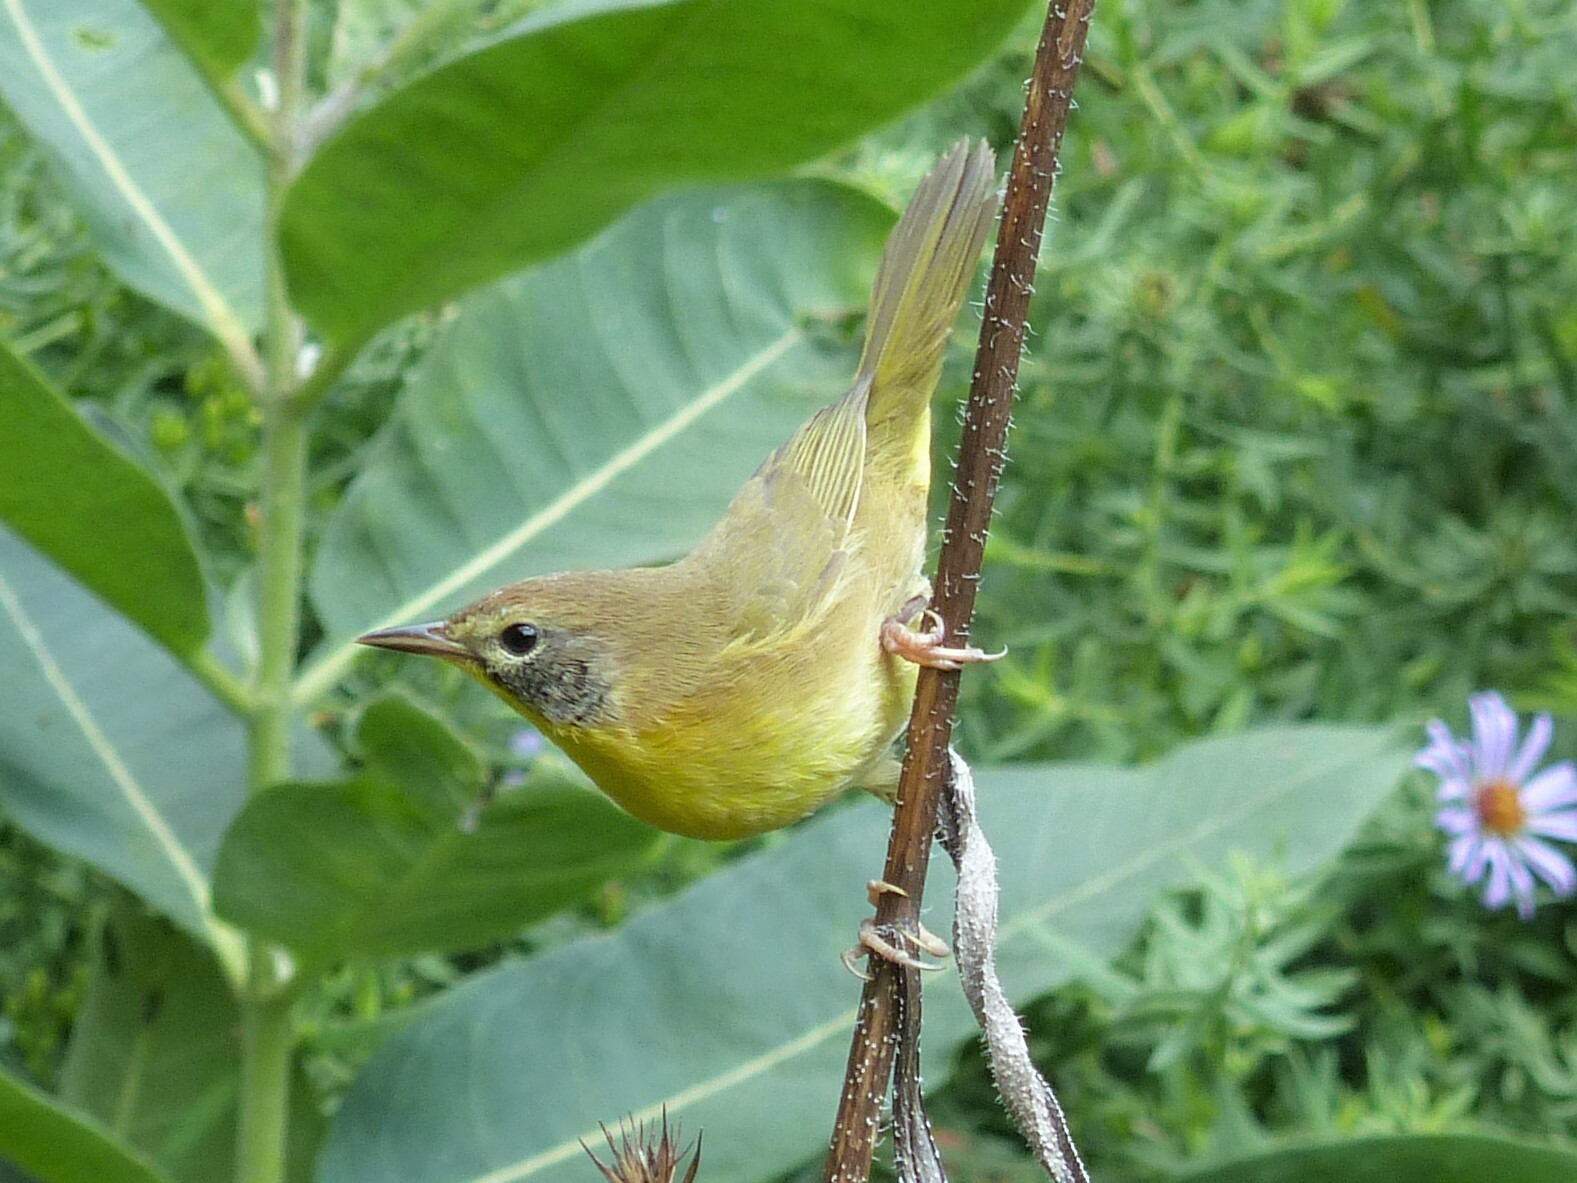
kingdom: Animalia
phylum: Chordata
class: Aves
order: Passeriformes
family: Parulidae
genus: Geothlypis
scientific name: Geothlypis trichas
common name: Common yellowthroat
